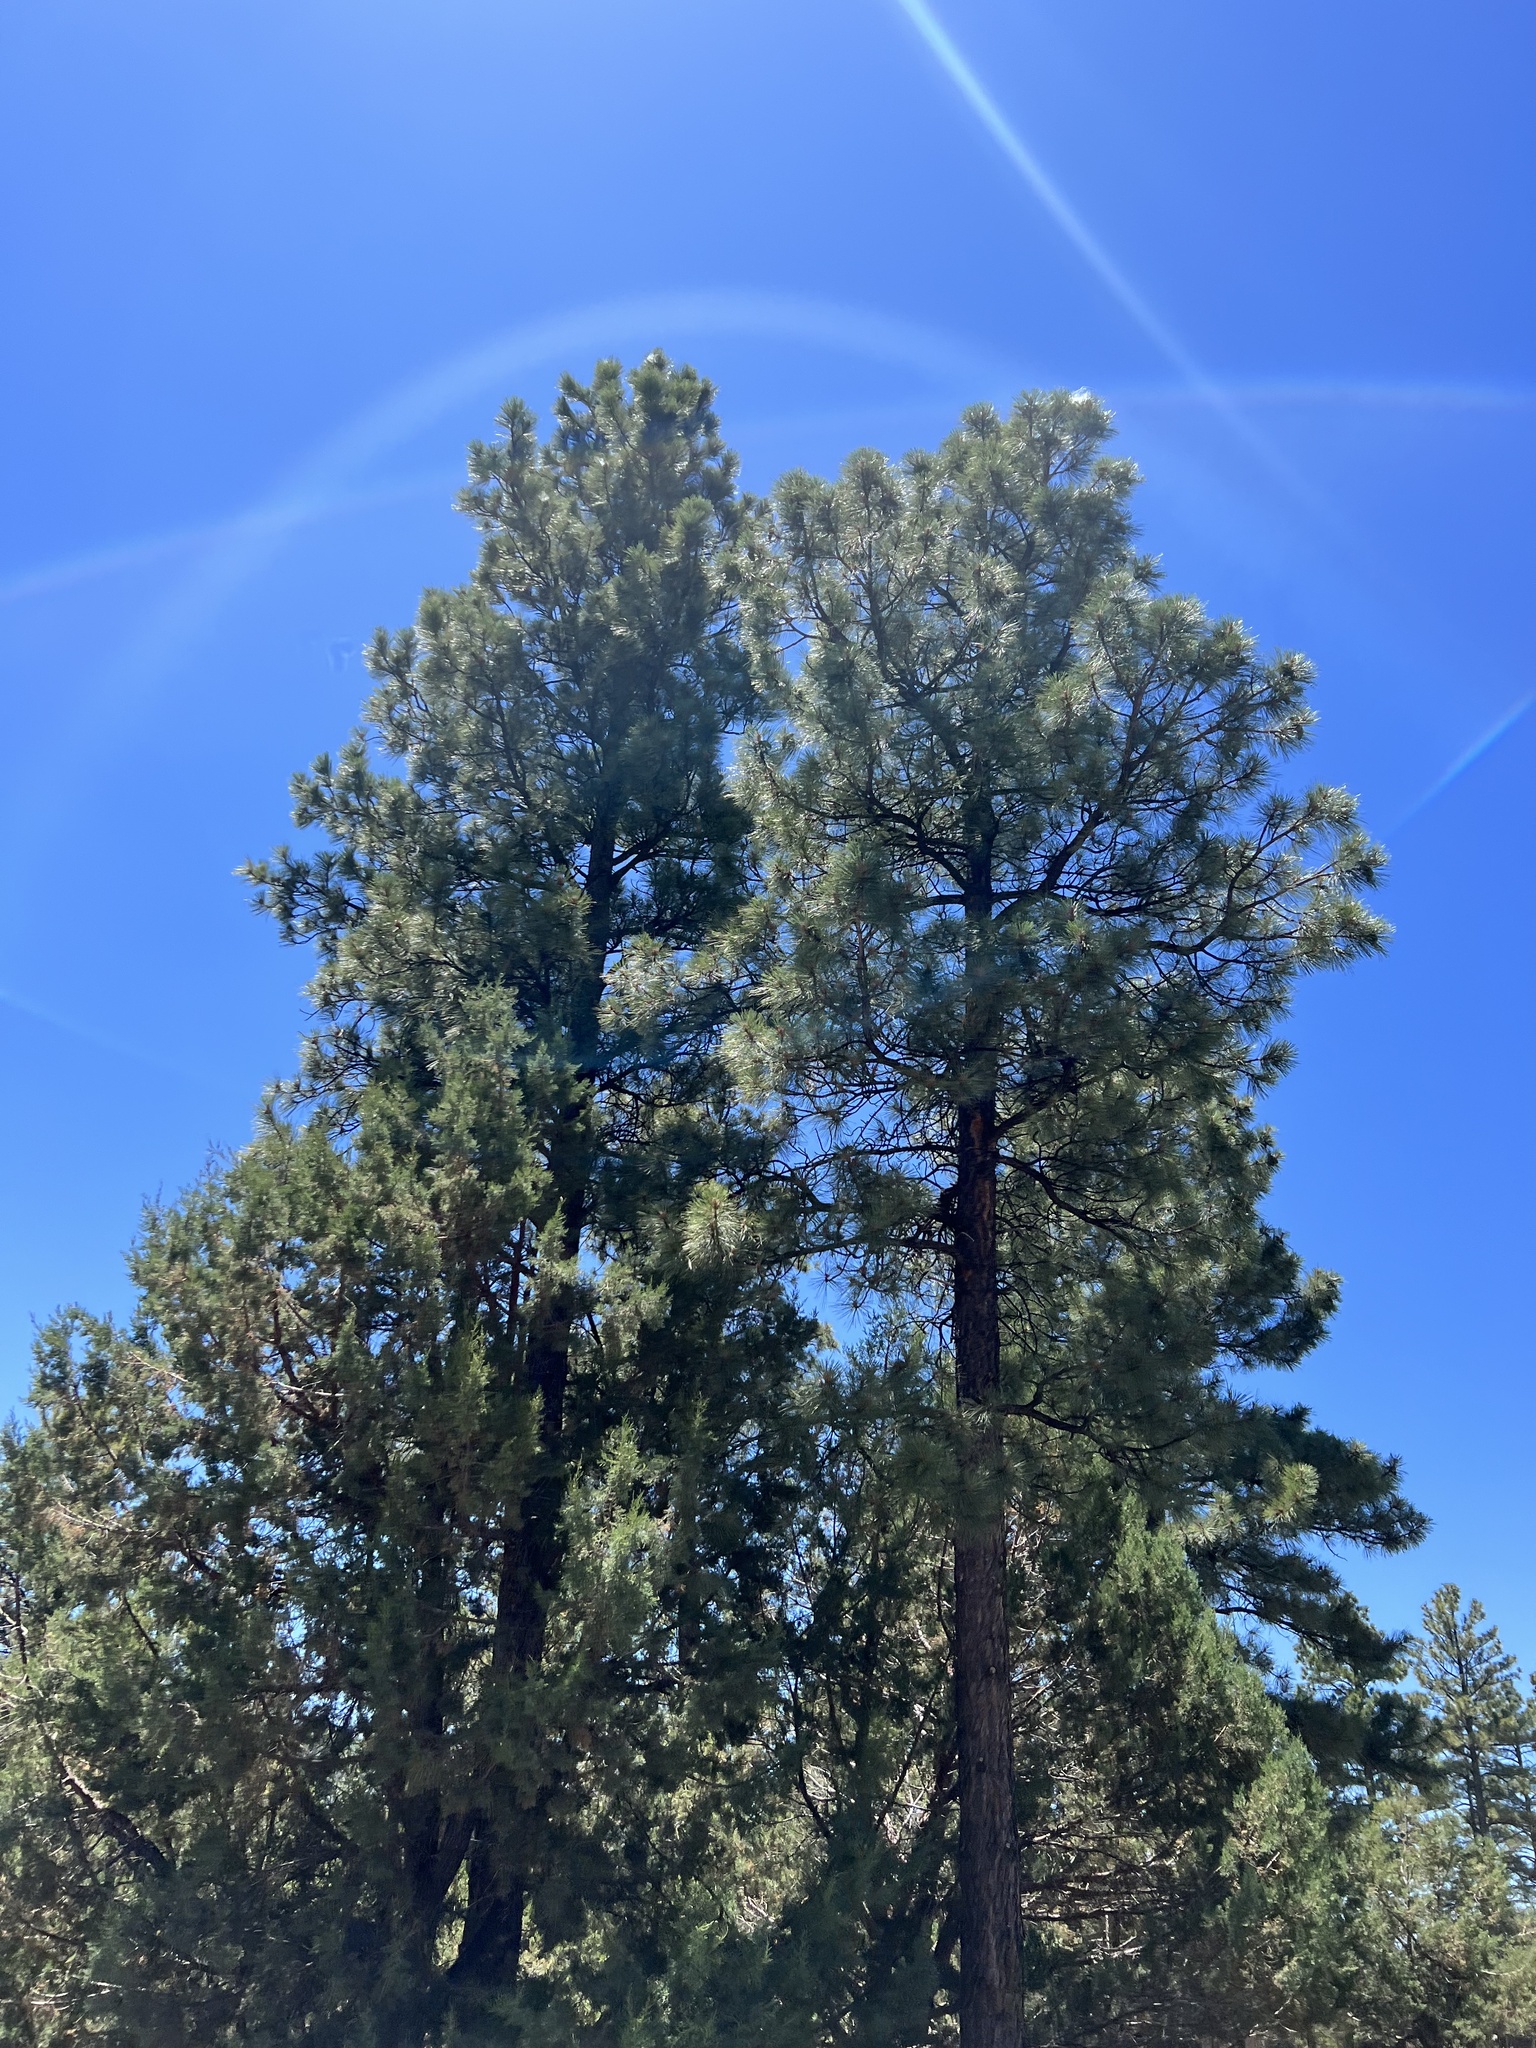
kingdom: Plantae
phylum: Tracheophyta
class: Pinopsida
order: Pinales
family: Pinaceae
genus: Pinus
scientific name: Pinus ponderosa
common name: Western yellow-pine
